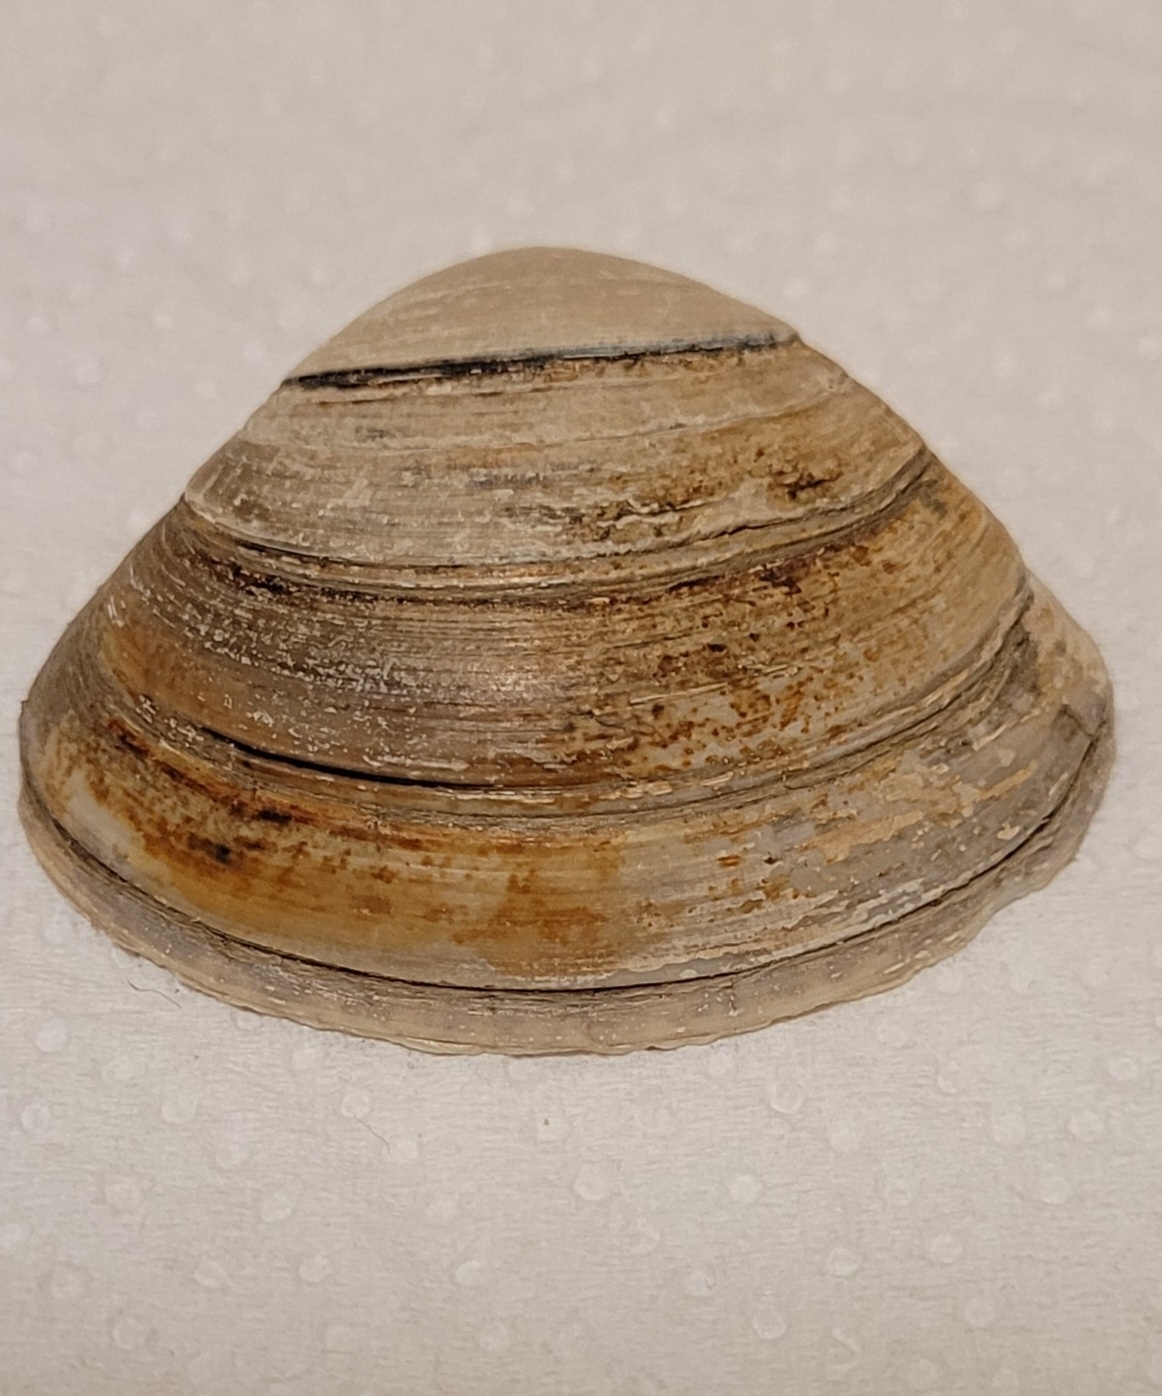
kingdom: Animalia
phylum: Mollusca
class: Bivalvia
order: Venerida
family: Mactridae
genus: Spisula
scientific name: Spisula solida
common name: Thick trough shell
